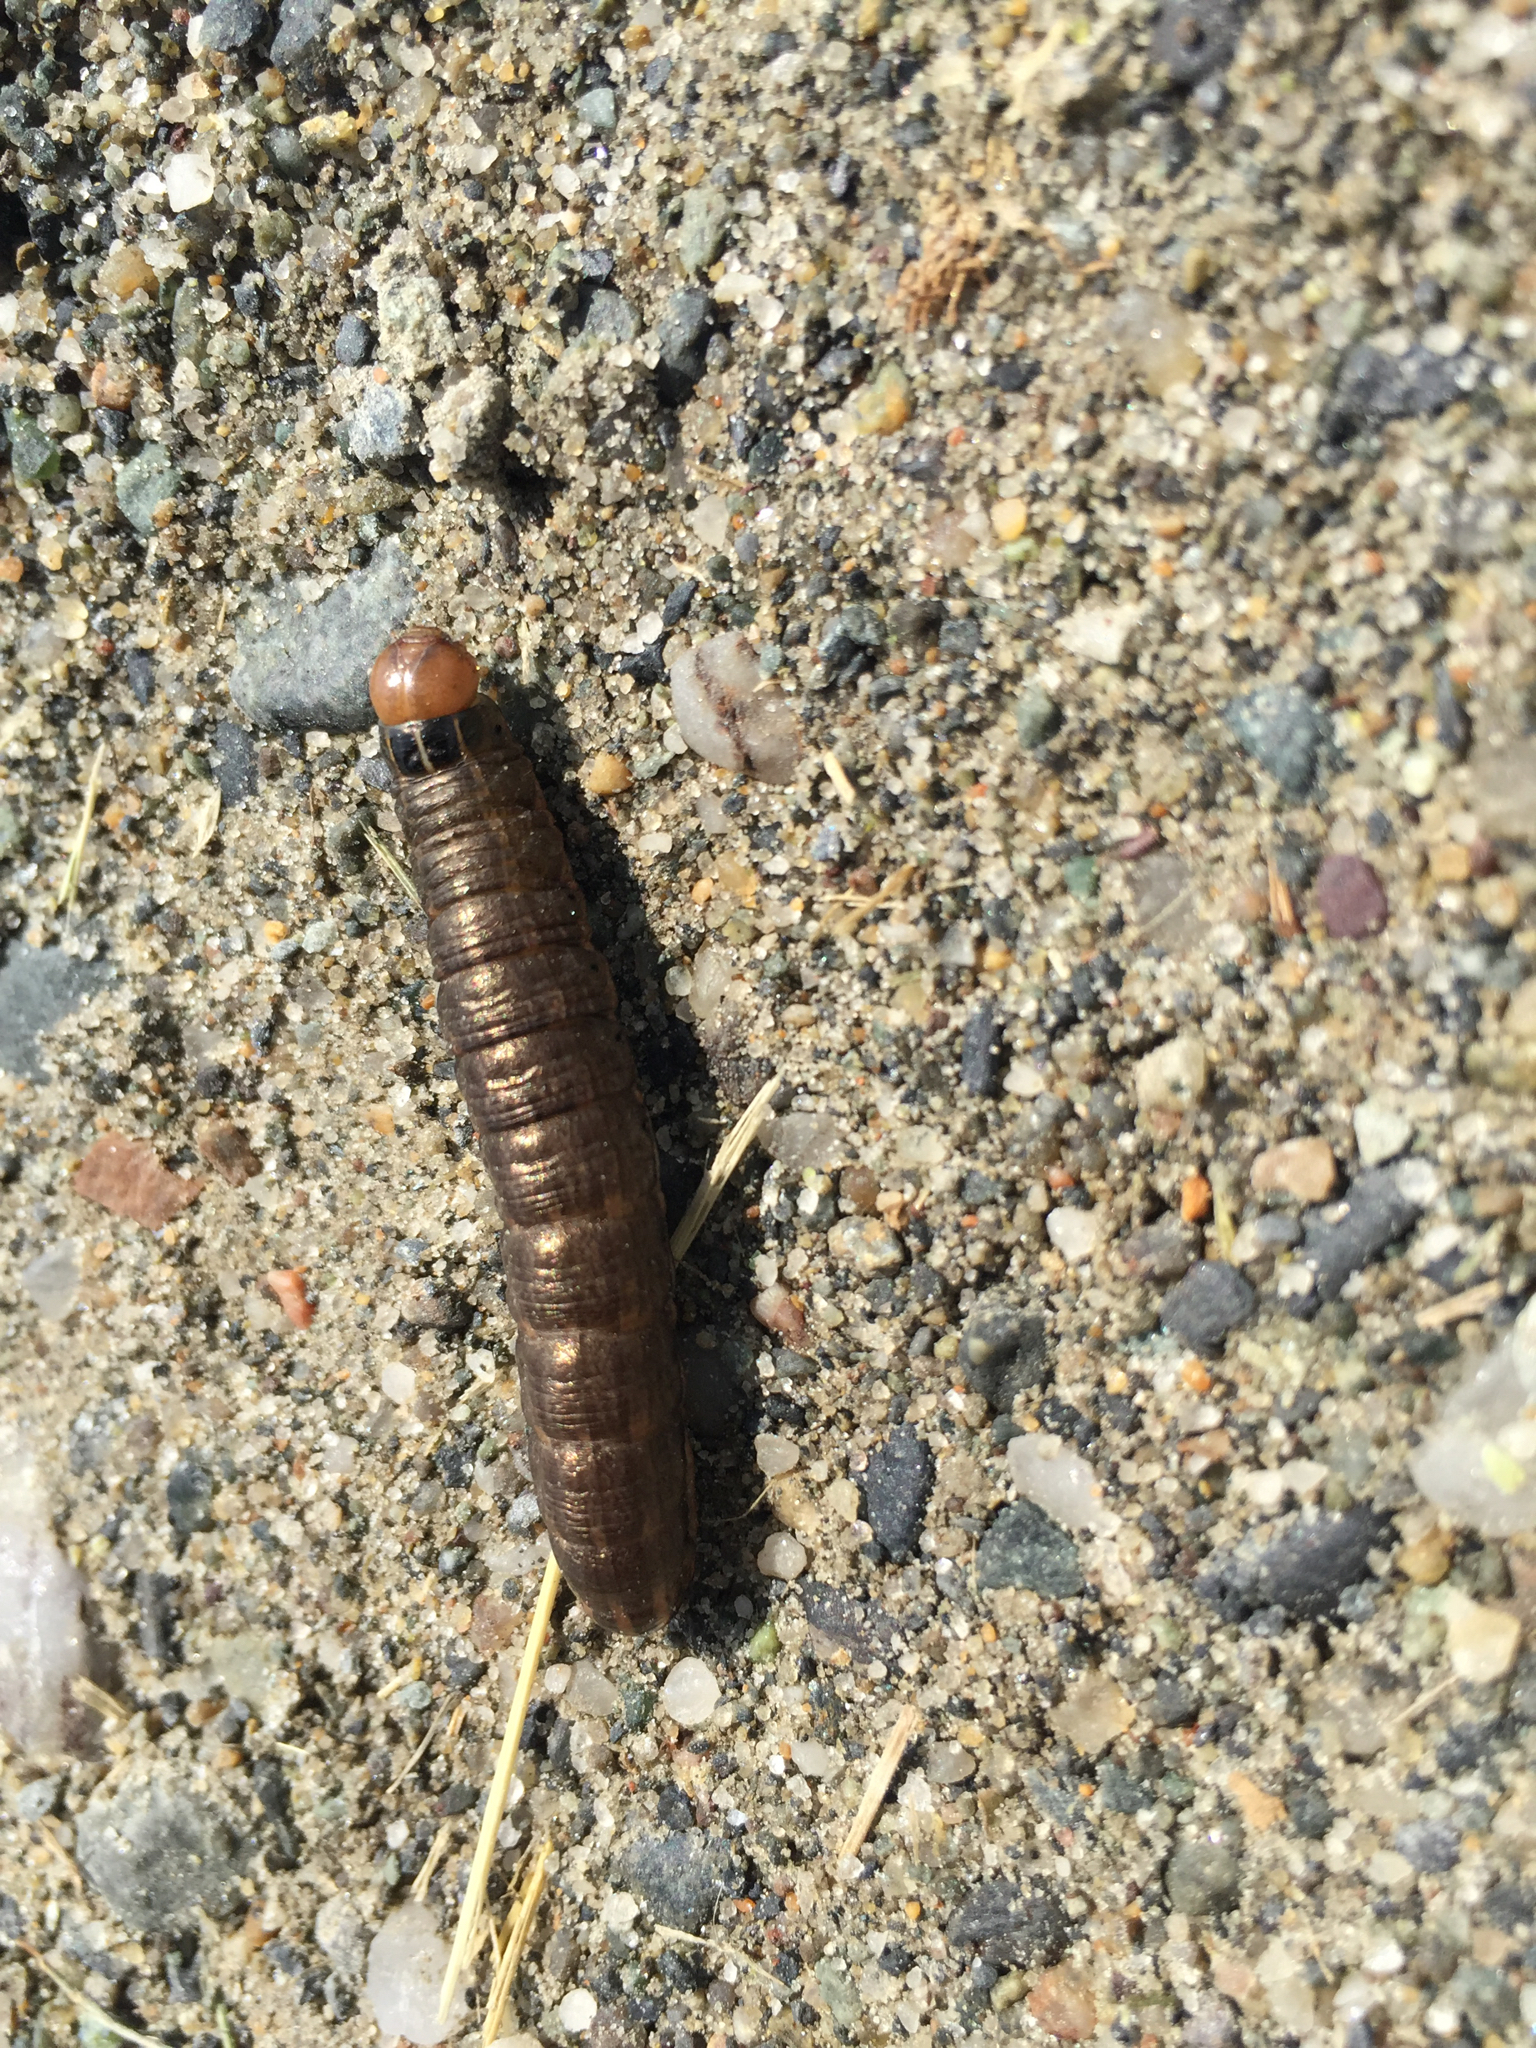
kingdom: Animalia
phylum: Arthropoda
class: Insecta
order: Lepidoptera
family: Noctuidae
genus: Nephelodes
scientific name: Nephelodes minians
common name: Bronzed cutworm
